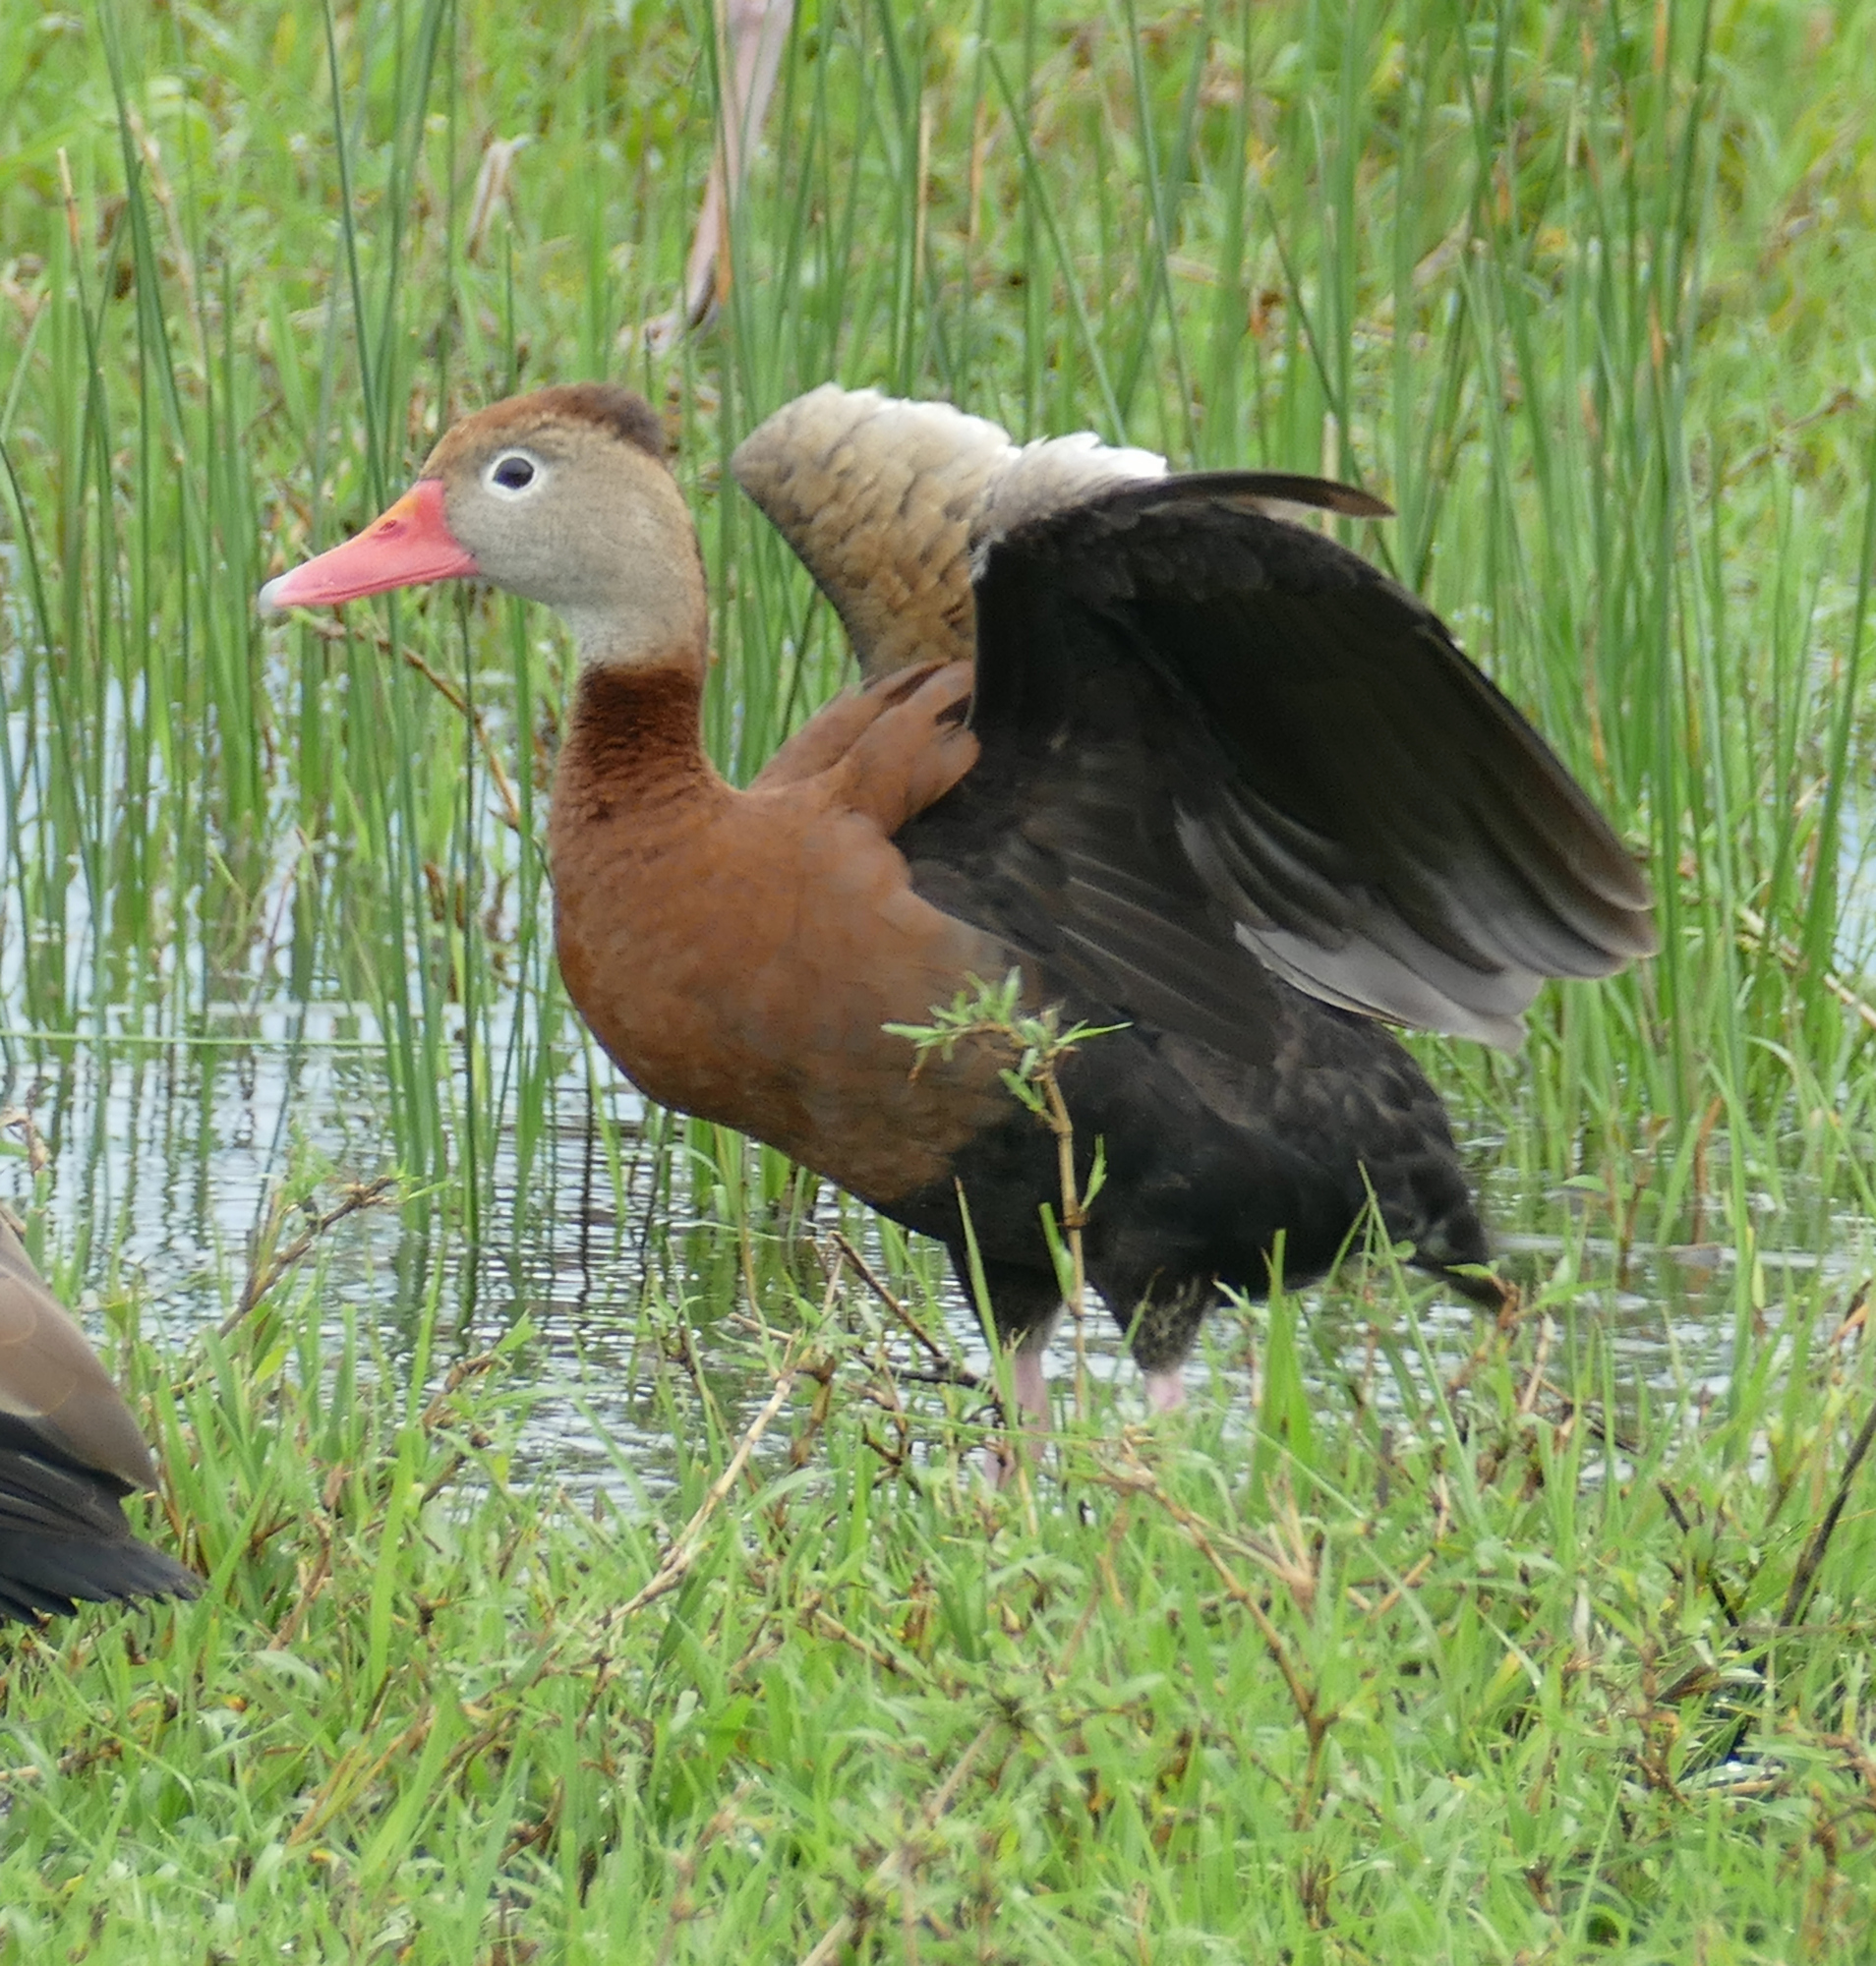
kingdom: Animalia
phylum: Chordata
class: Aves
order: Anseriformes
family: Anatidae
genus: Dendrocygna
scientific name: Dendrocygna autumnalis
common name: Black-bellied whistling duck
